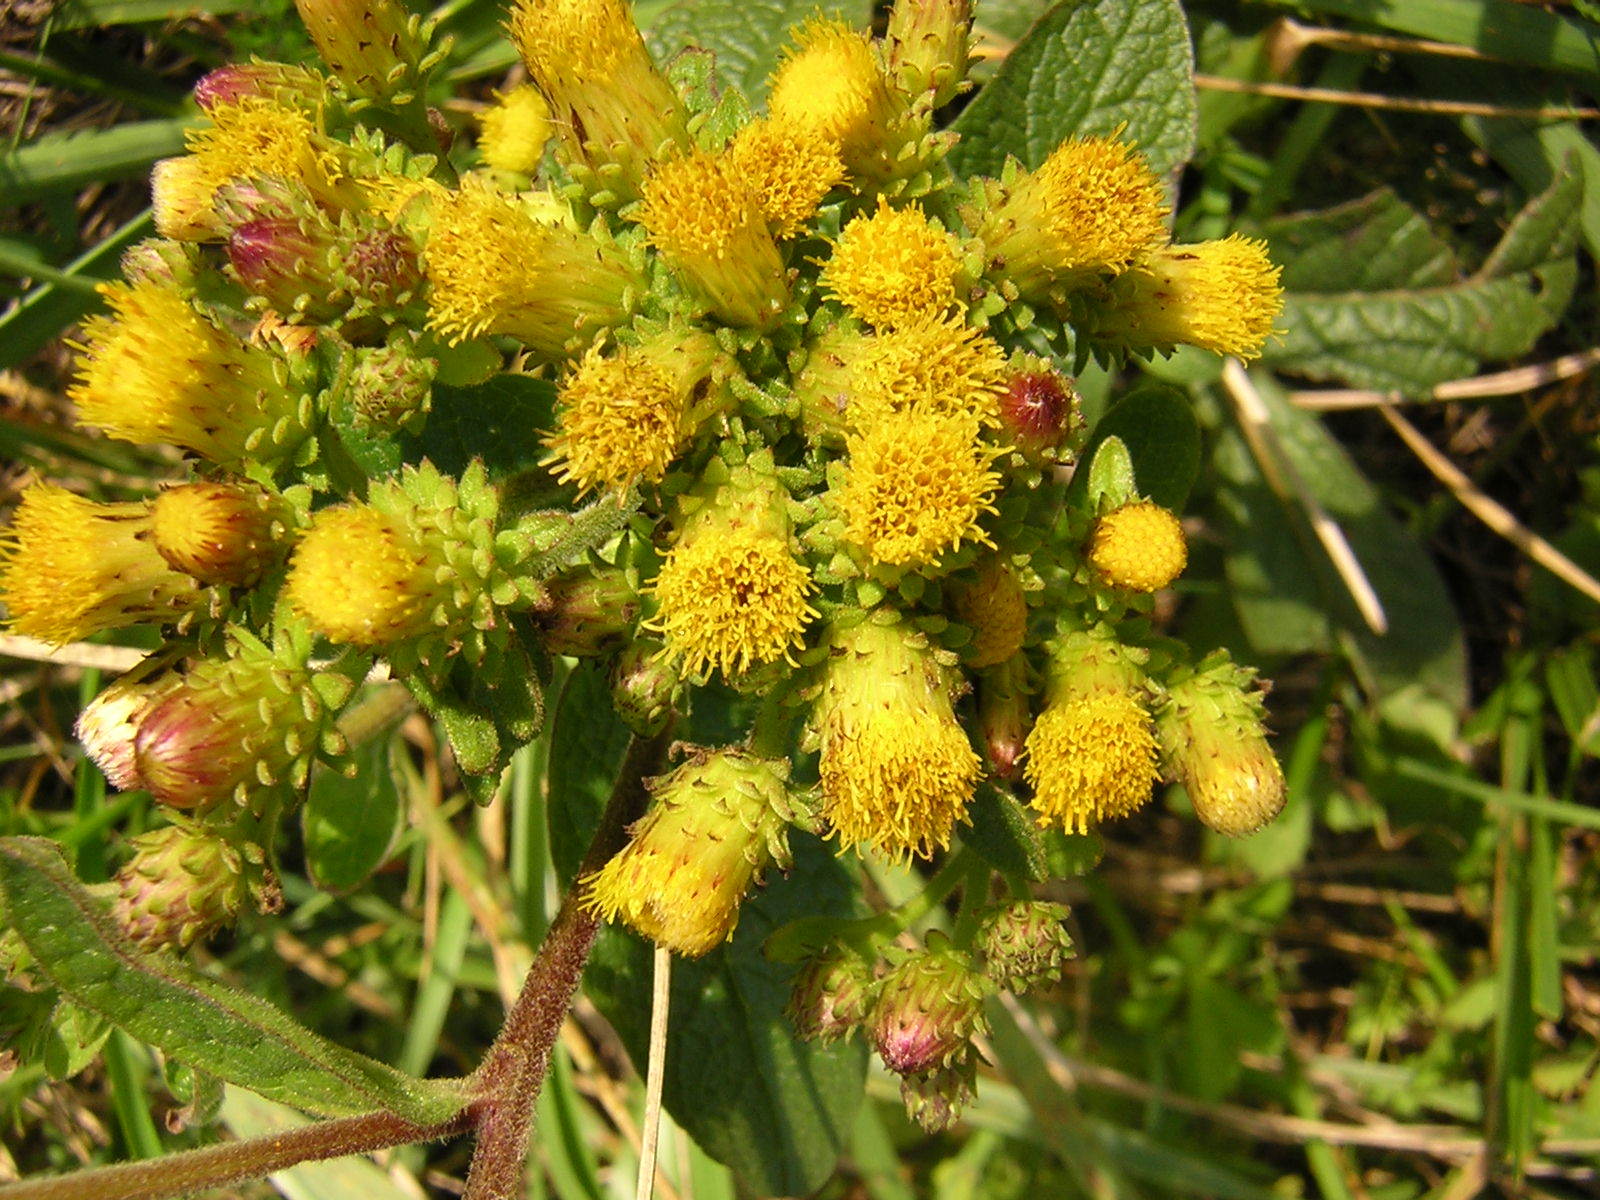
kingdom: Plantae
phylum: Tracheophyta
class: Magnoliopsida
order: Asterales
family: Asteraceae
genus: Pentanema
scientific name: Pentanema squarrosum
